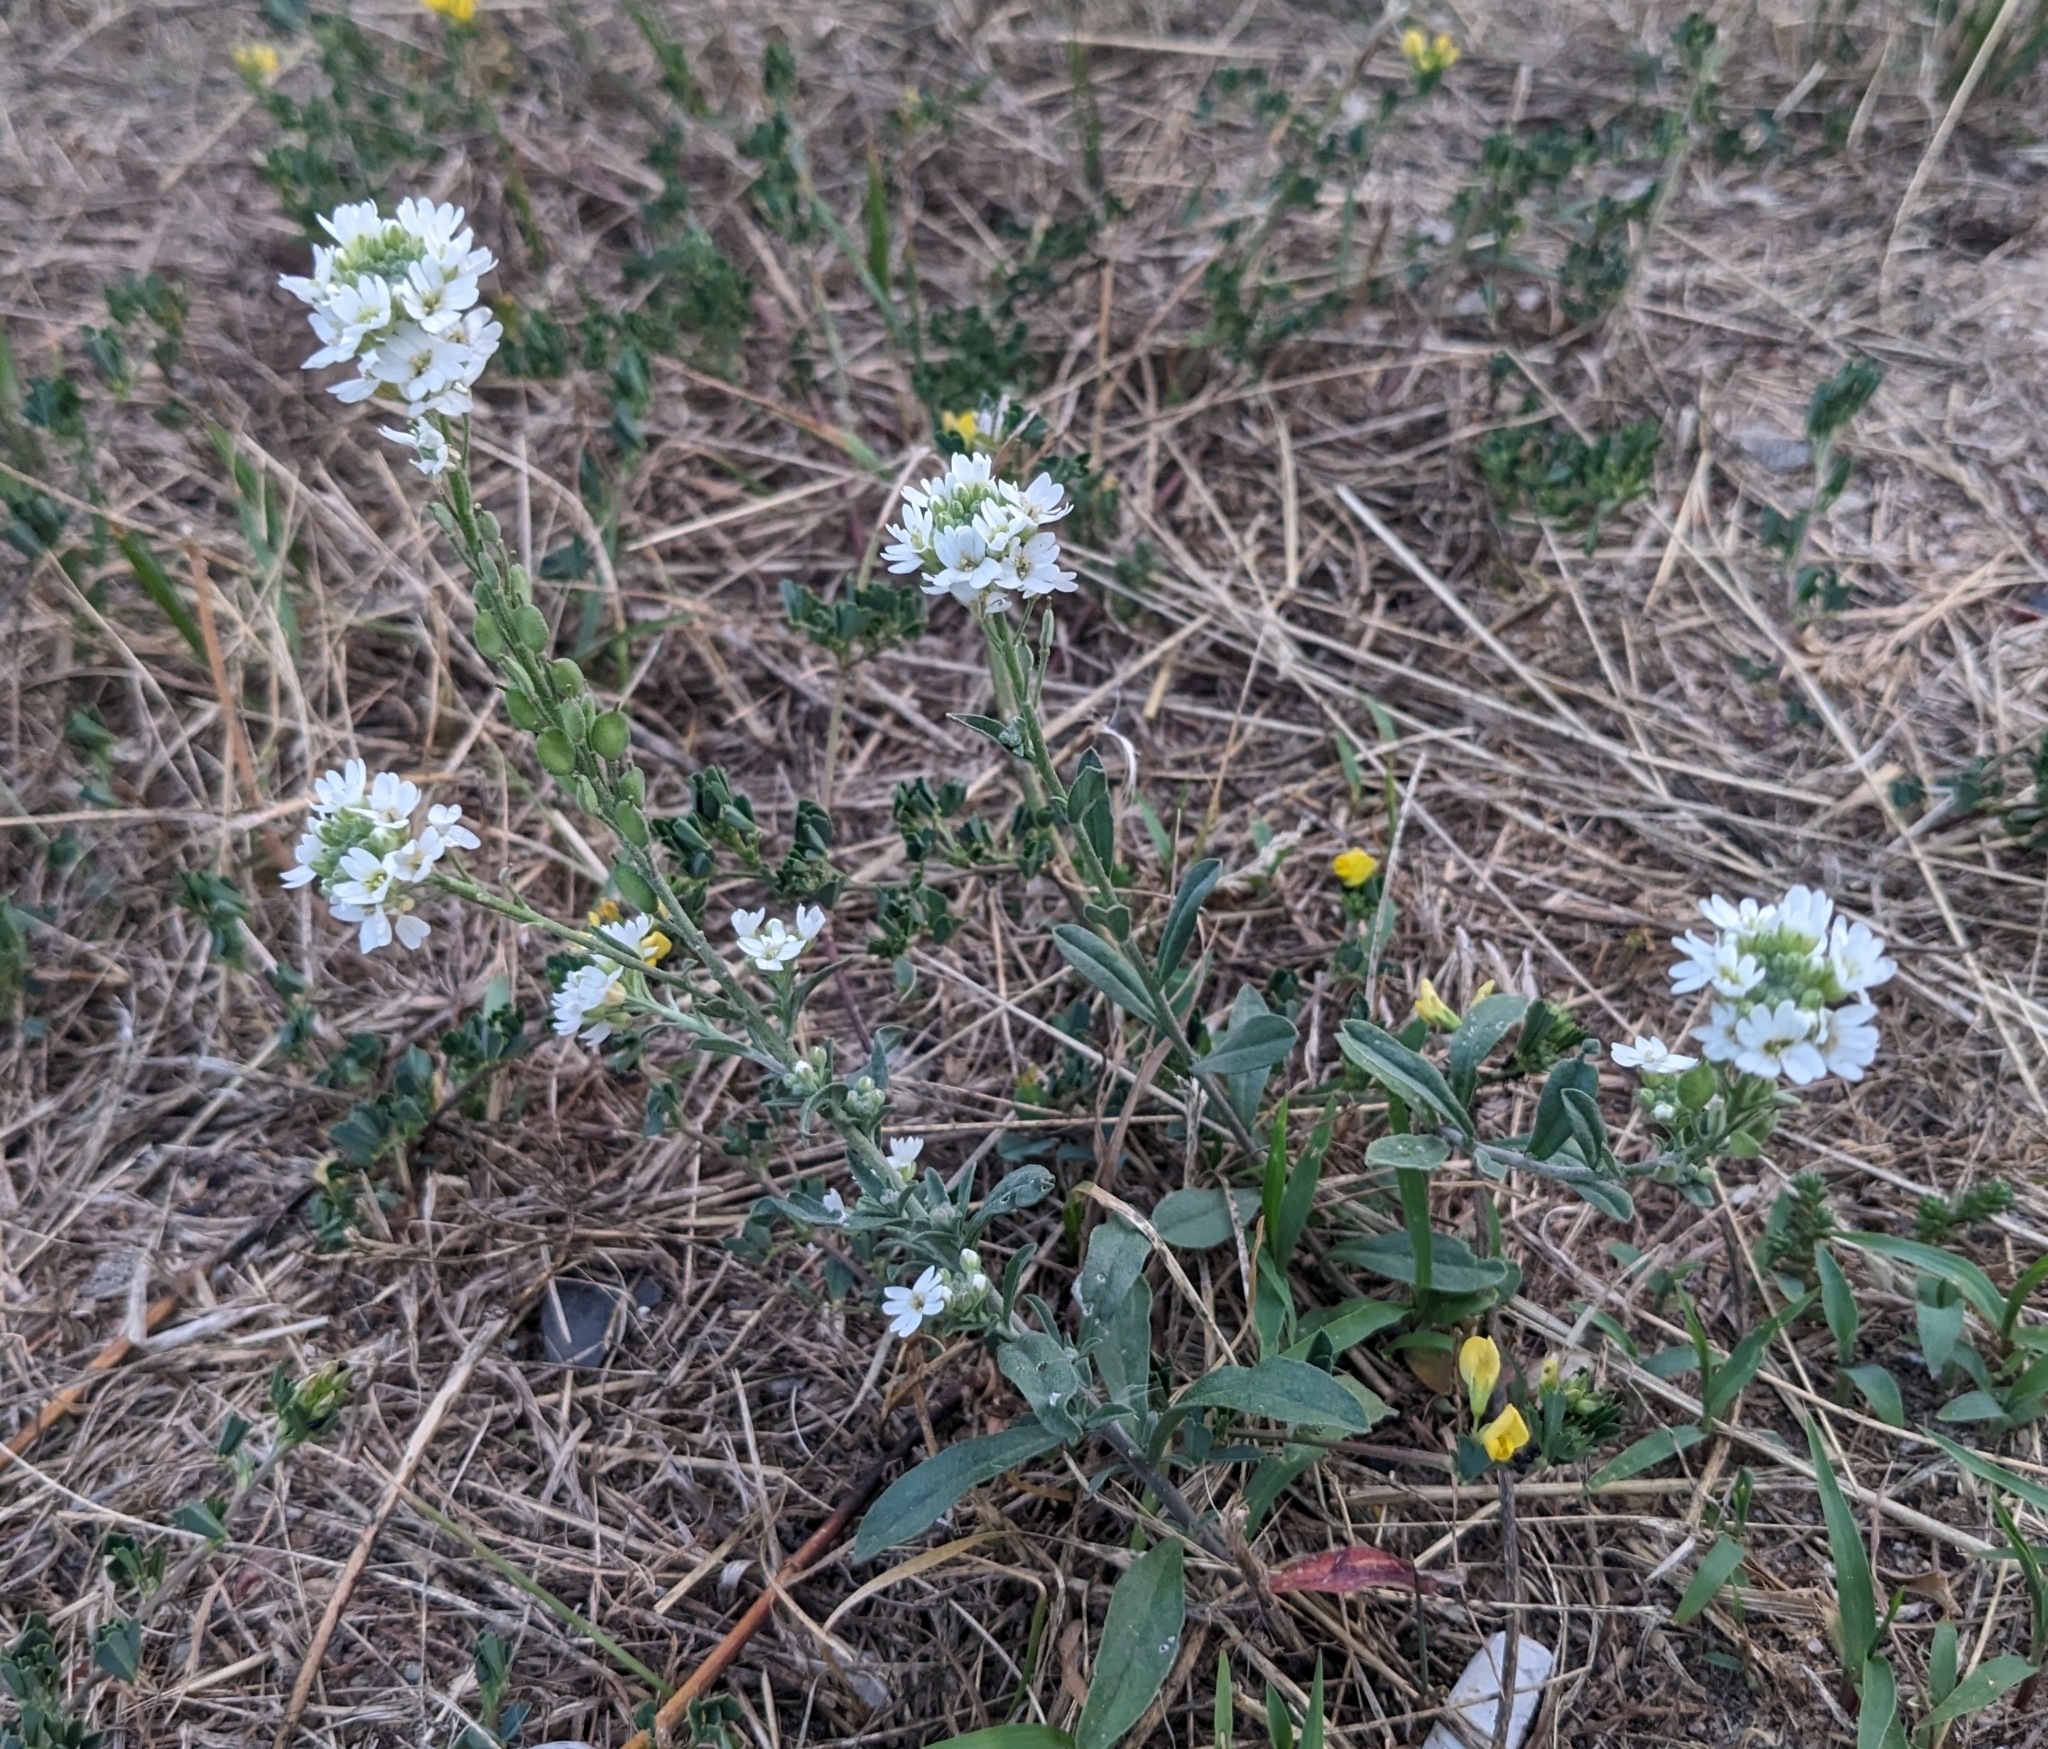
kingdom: Plantae
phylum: Tracheophyta
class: Magnoliopsida
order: Brassicales
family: Brassicaceae
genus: Berteroa
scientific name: Berteroa incana
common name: Hoary alison
